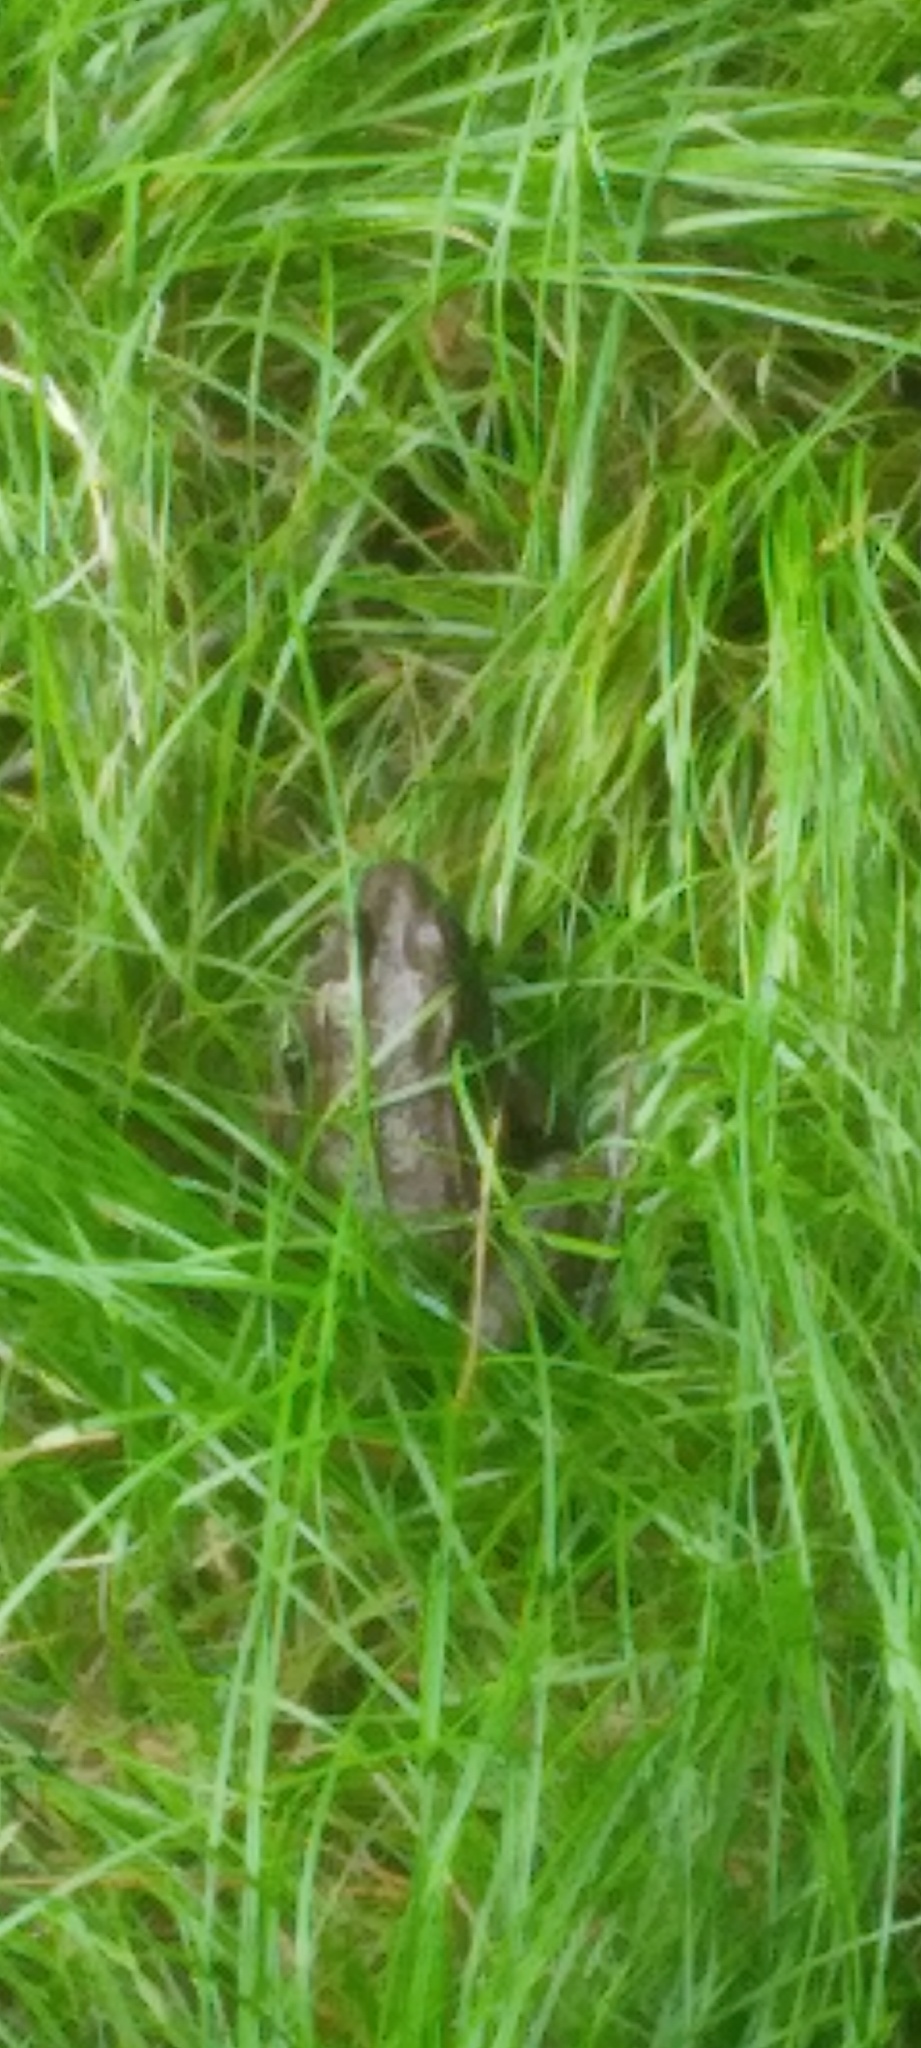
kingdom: Animalia
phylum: Chordata
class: Amphibia
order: Anura
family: Ranidae
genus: Lithobates
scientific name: Lithobates clamitans
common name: Green frog
